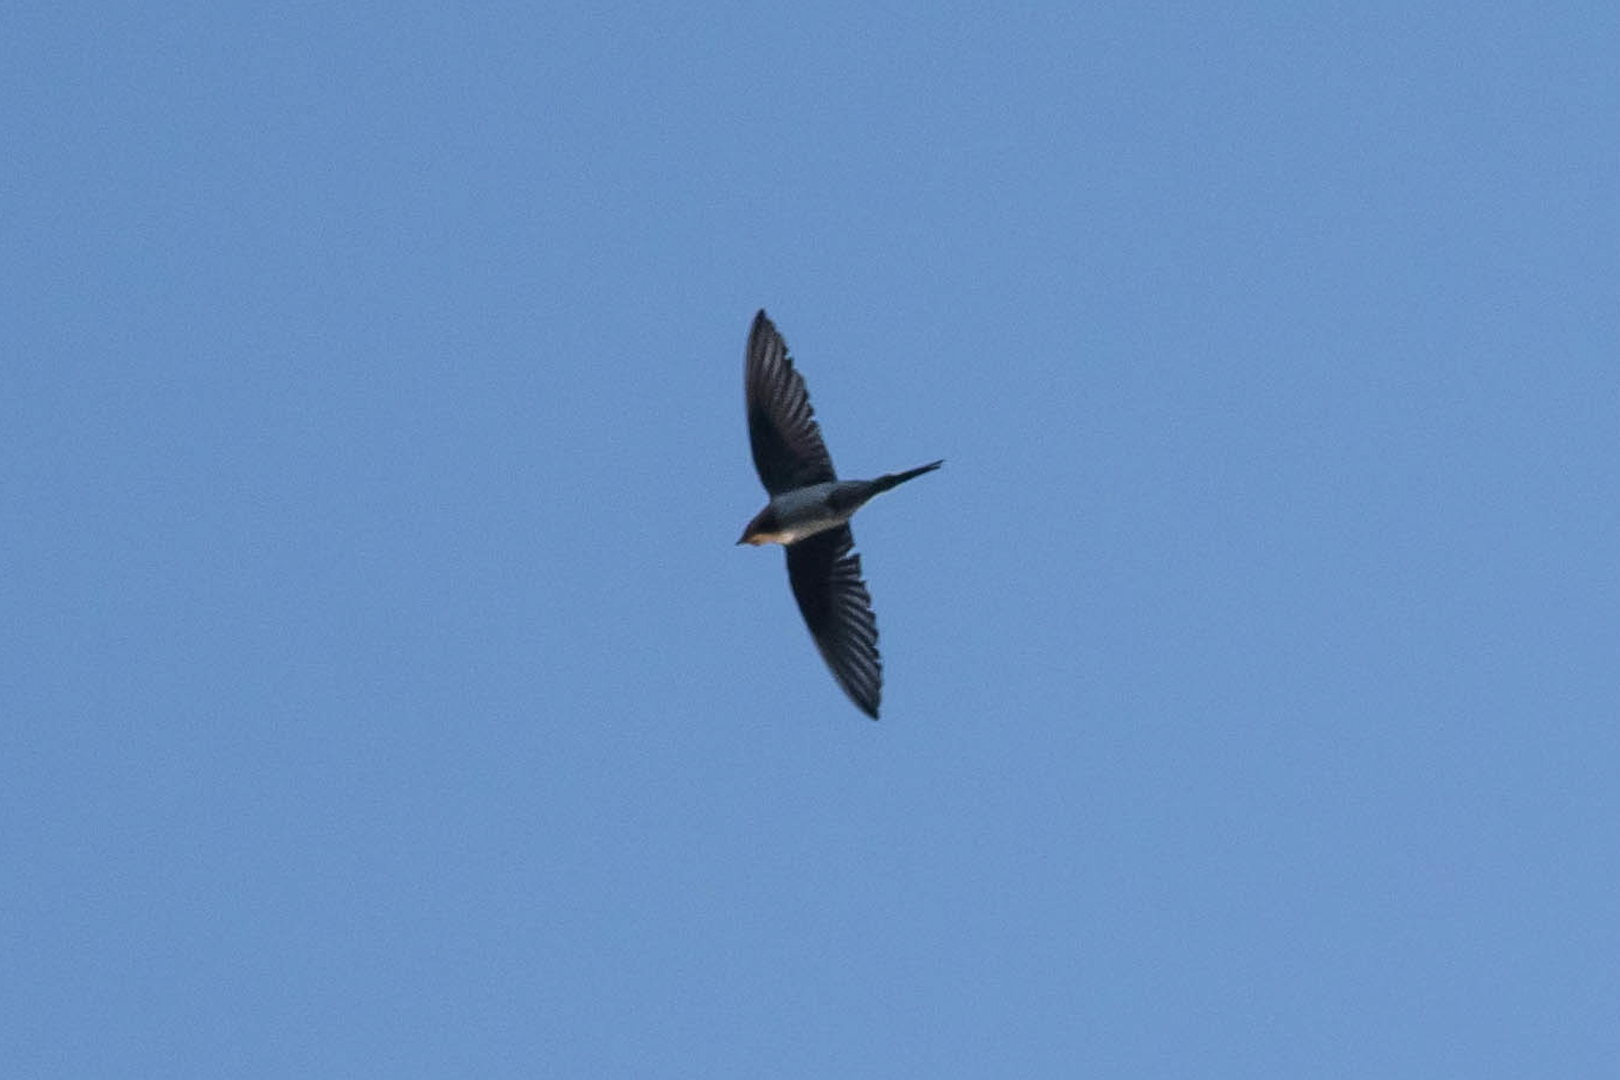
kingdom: Animalia
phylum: Chordata
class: Aves
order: Passeriformes
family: Hirundinidae
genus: Hirundo
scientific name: Hirundo neoxena
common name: Welcome swallow
